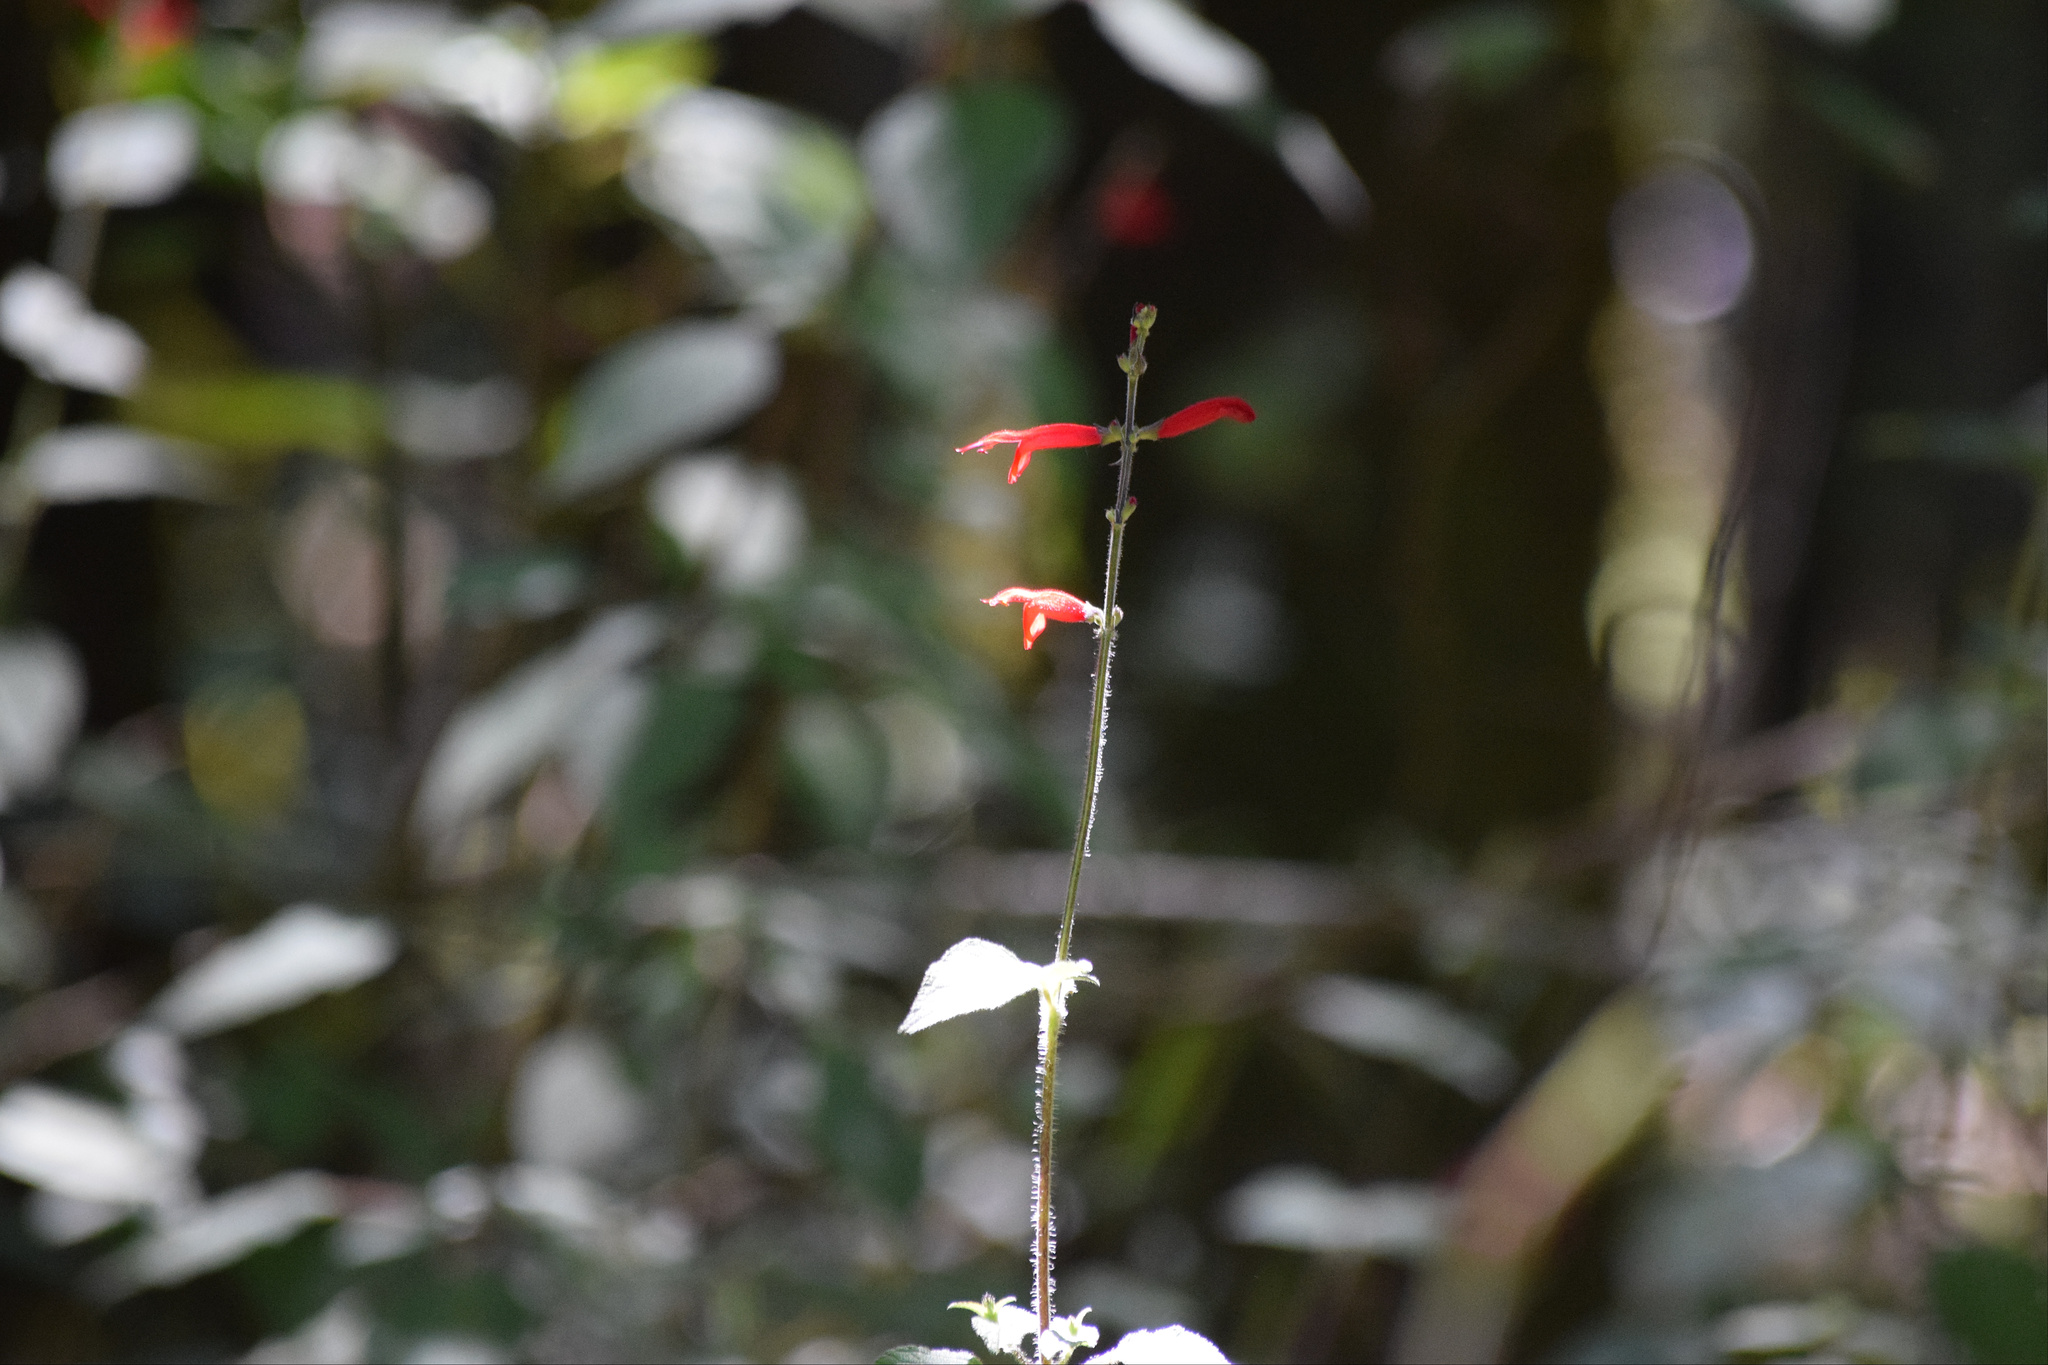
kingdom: Plantae
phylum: Tracheophyta
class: Magnoliopsida
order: Lamiales
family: Lamiaceae
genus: Salvia
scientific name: Salvia elegans
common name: Pineapple sage
